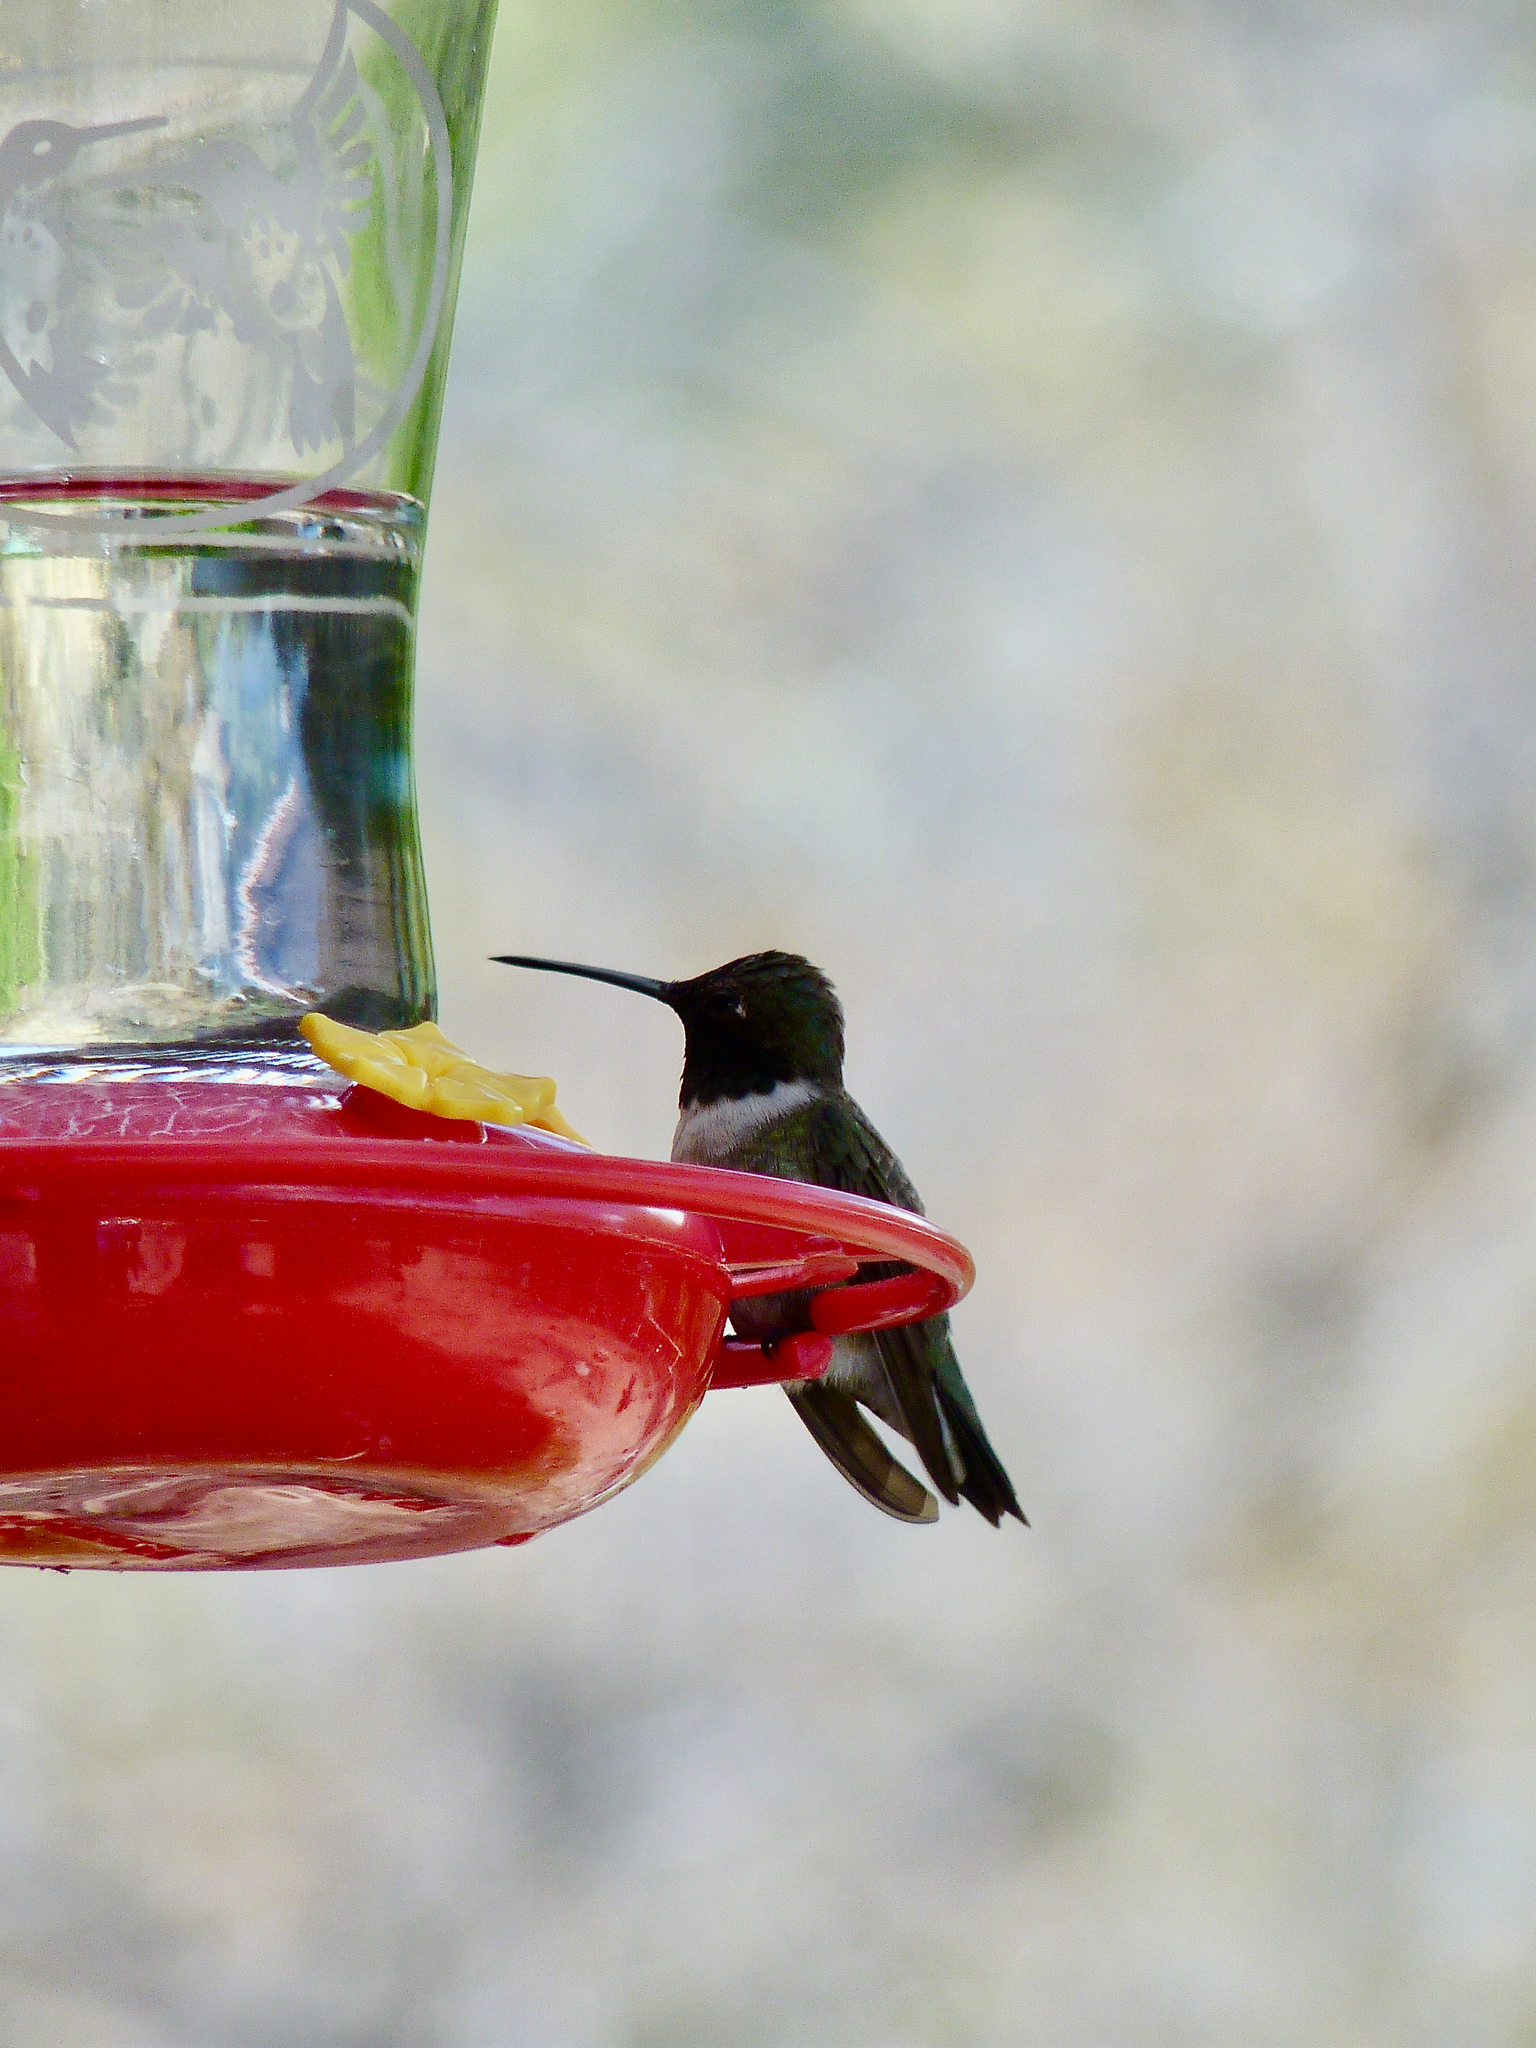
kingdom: Animalia
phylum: Chordata
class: Aves
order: Apodiformes
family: Trochilidae
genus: Archilochus
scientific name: Archilochus alexandri
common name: Black-chinned hummingbird
